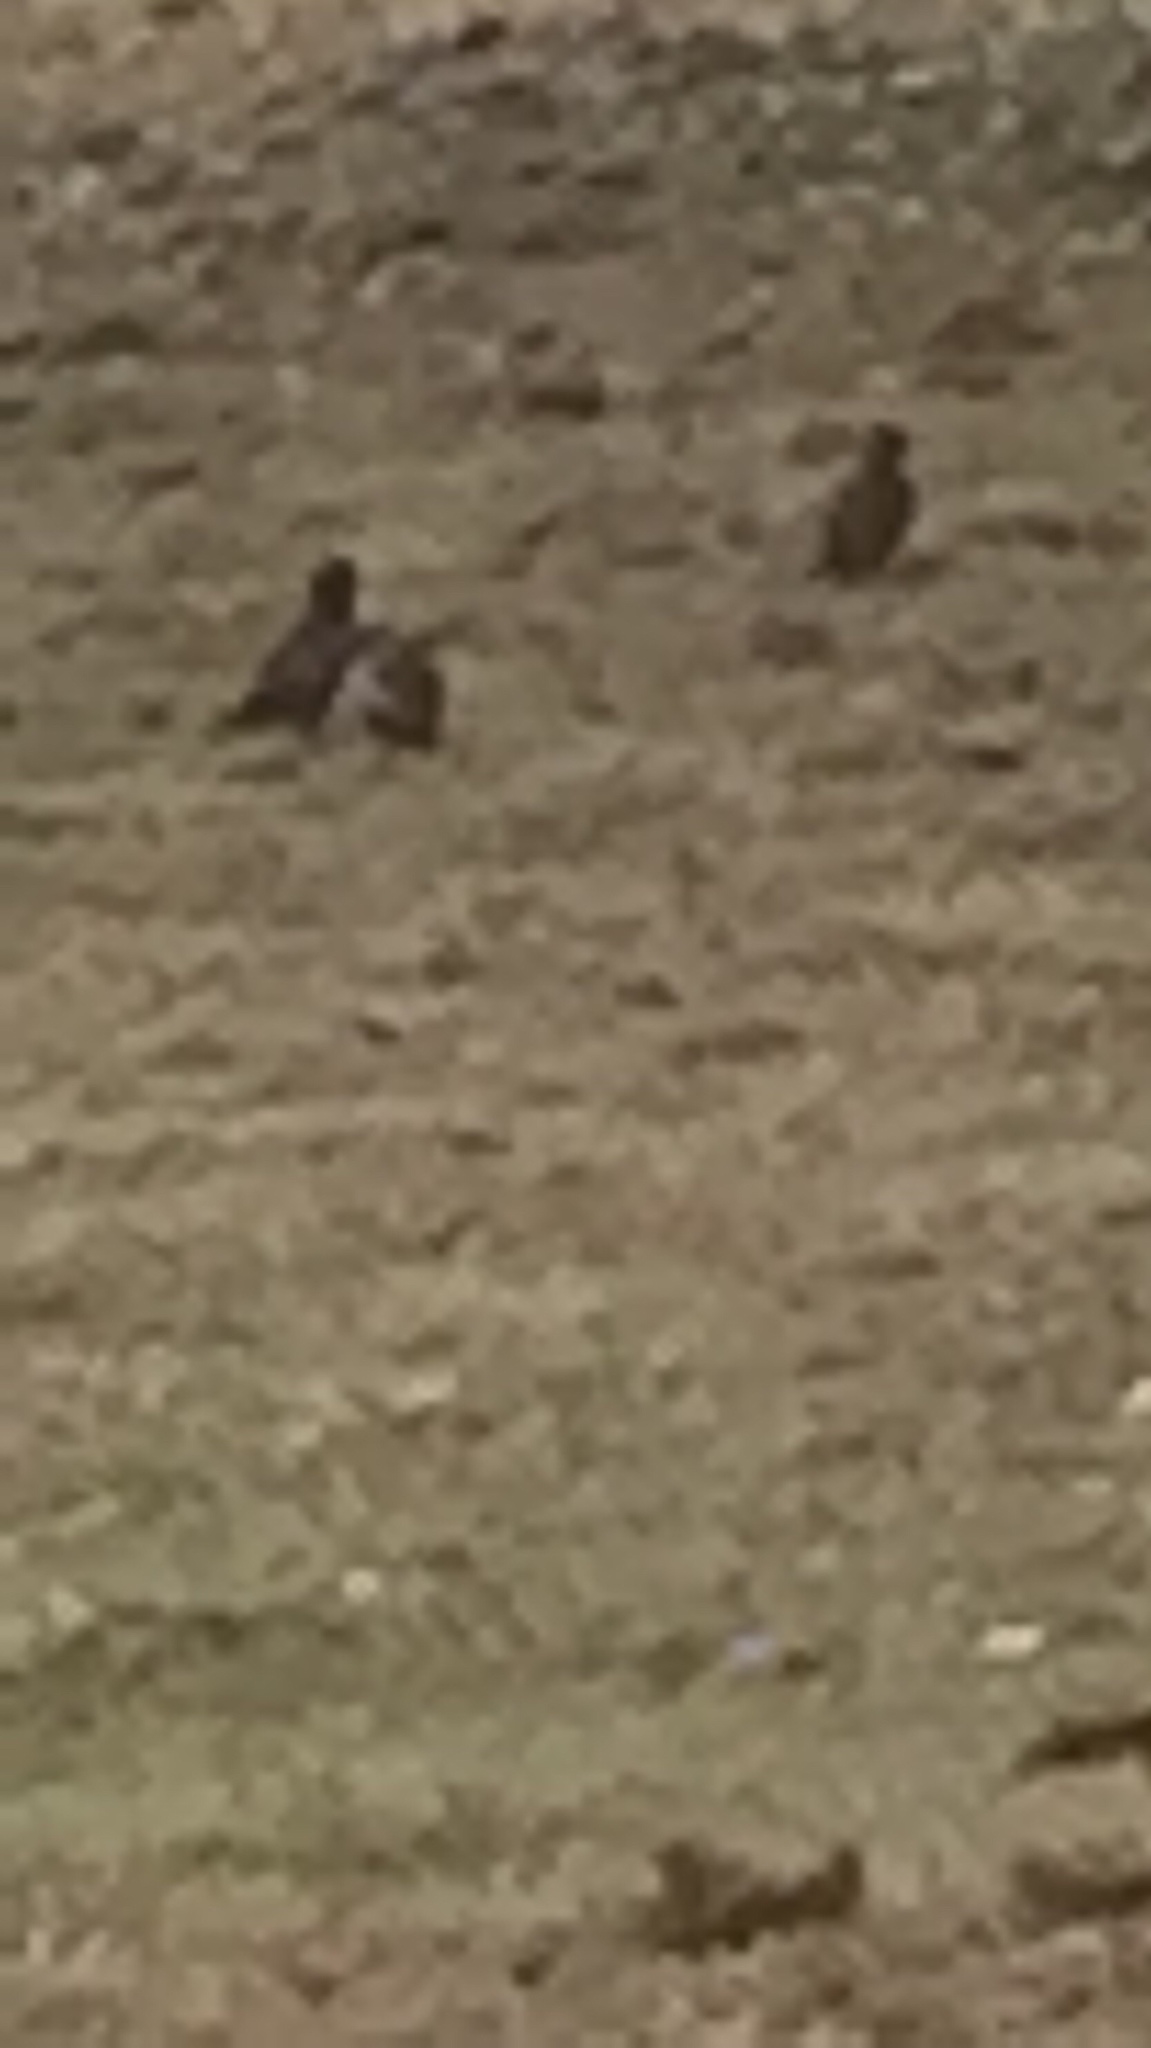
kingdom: Animalia
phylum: Chordata
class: Aves
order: Passeriformes
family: Sturnidae
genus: Sturnus
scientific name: Sturnus vulgaris
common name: Common starling
